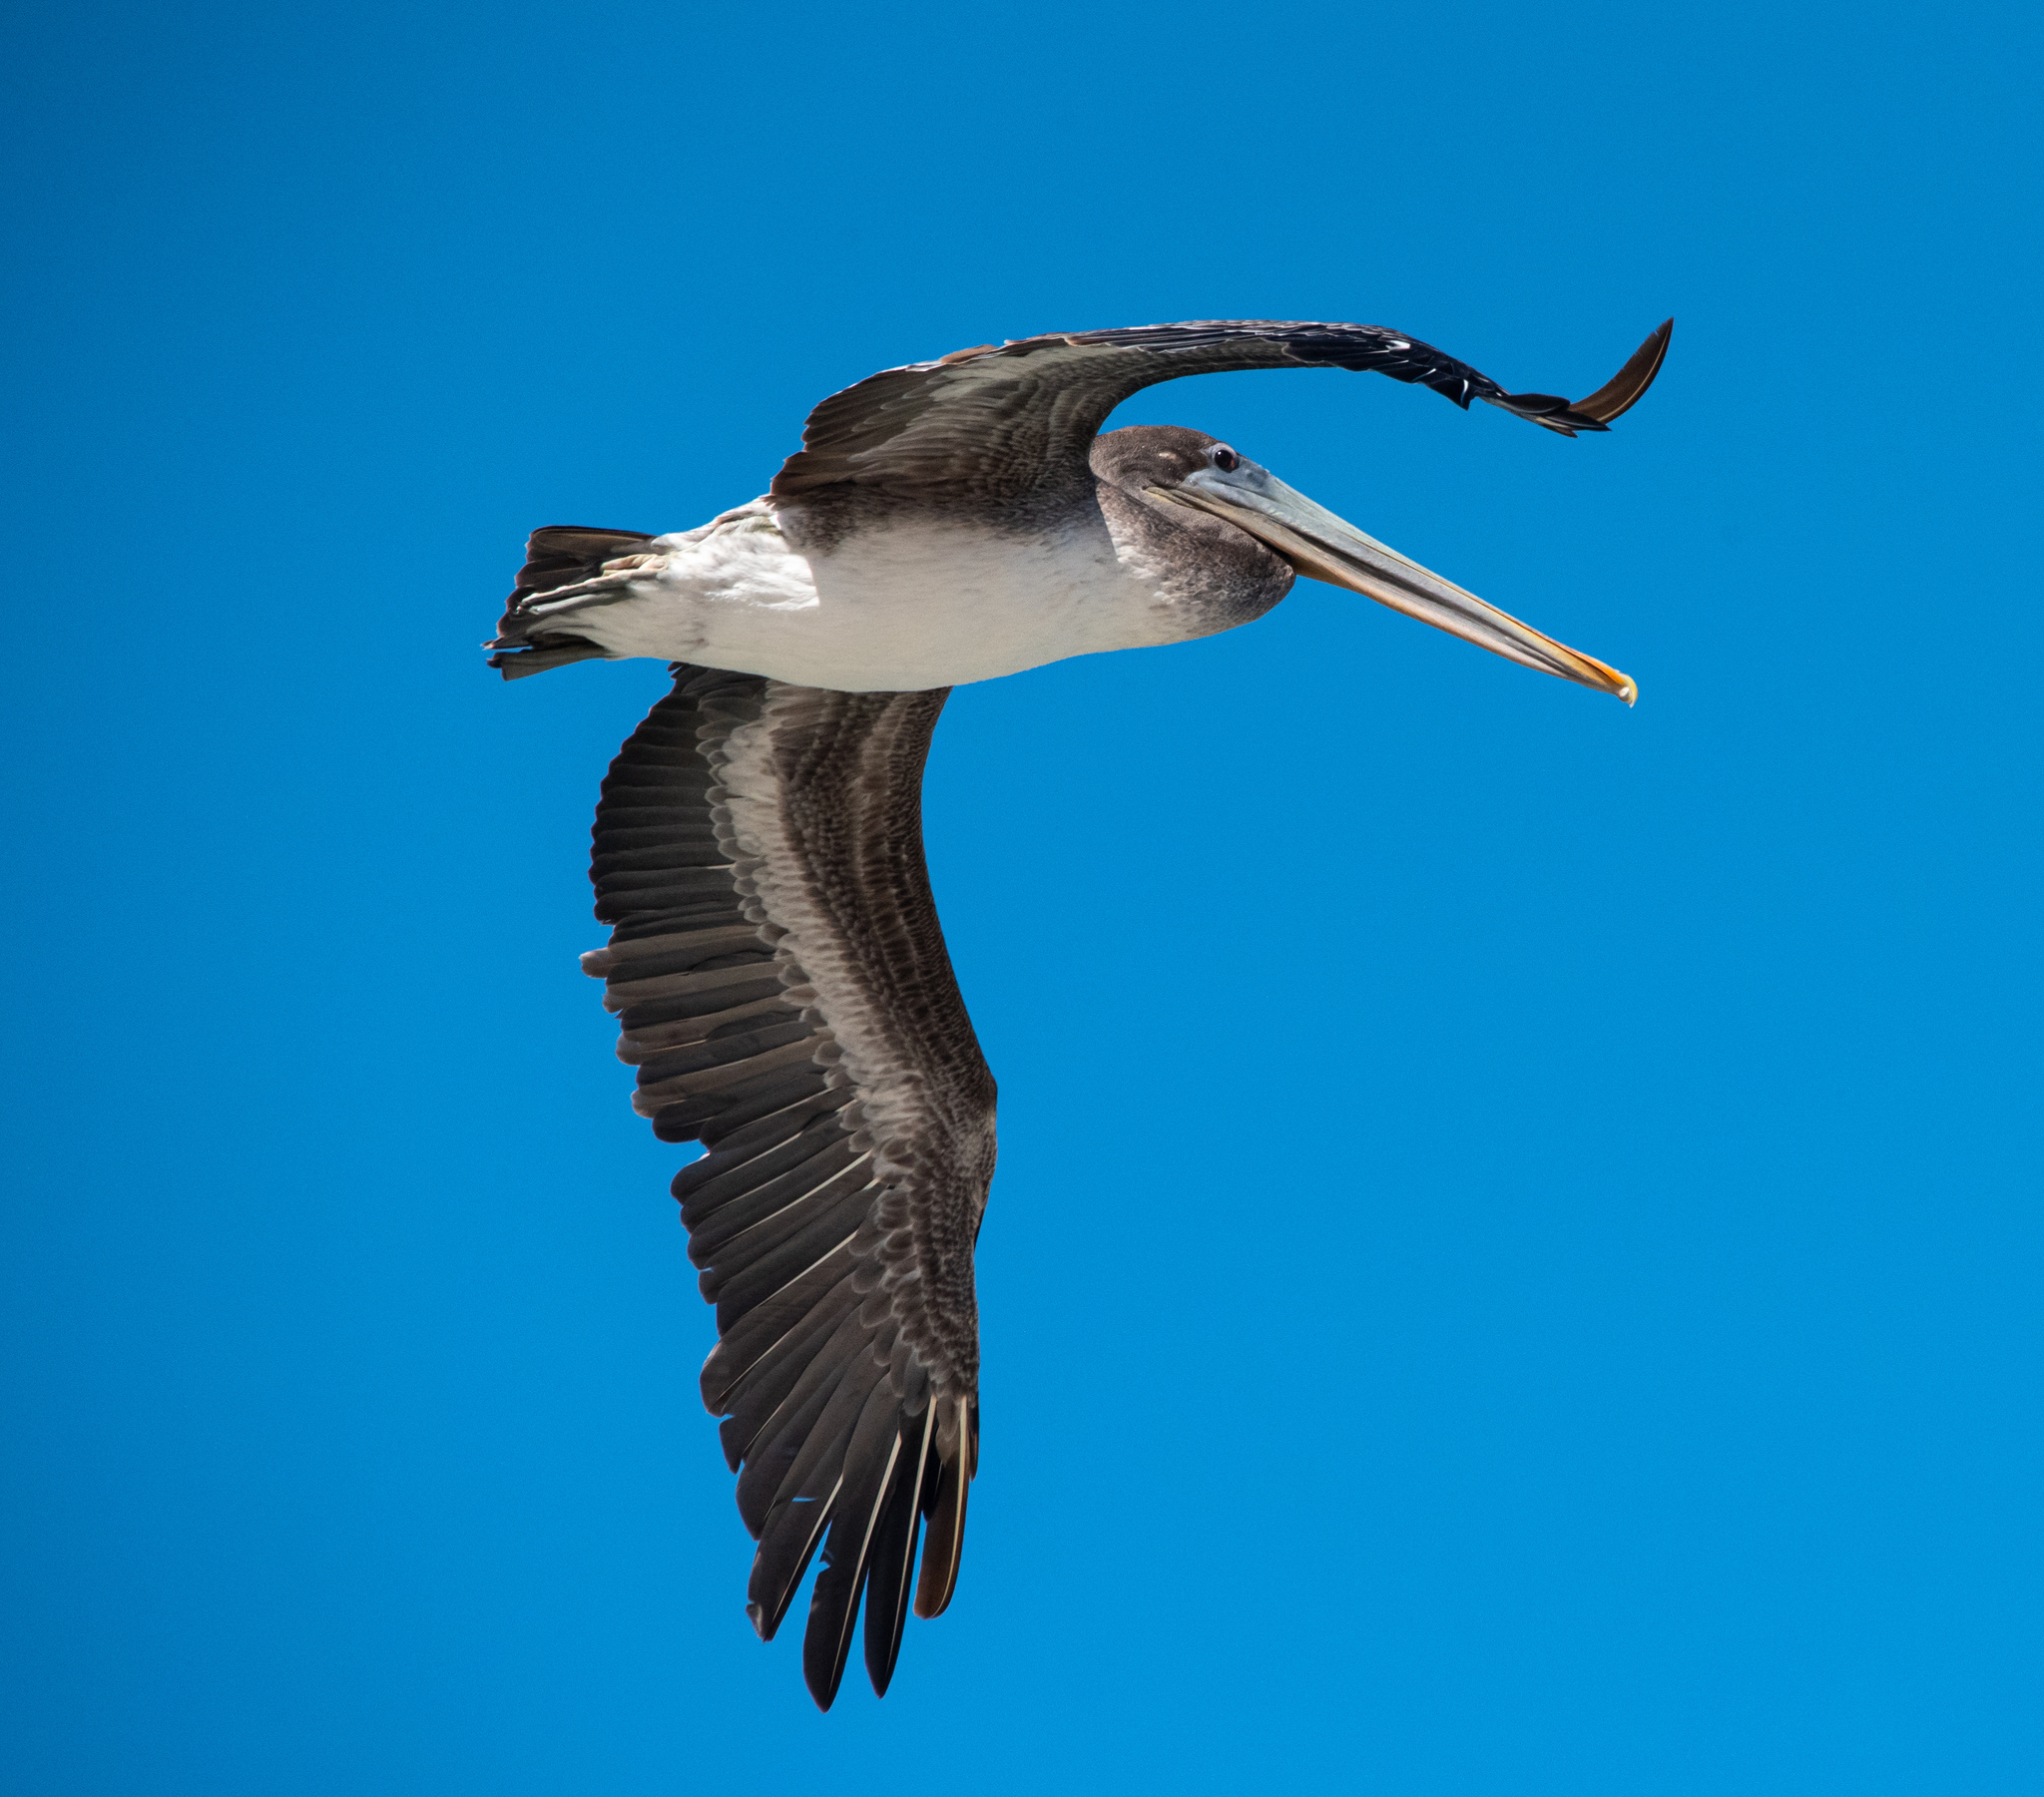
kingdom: Animalia
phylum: Chordata
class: Aves
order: Pelecaniformes
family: Pelecanidae
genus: Pelecanus
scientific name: Pelecanus occidentalis
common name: Brown pelican
